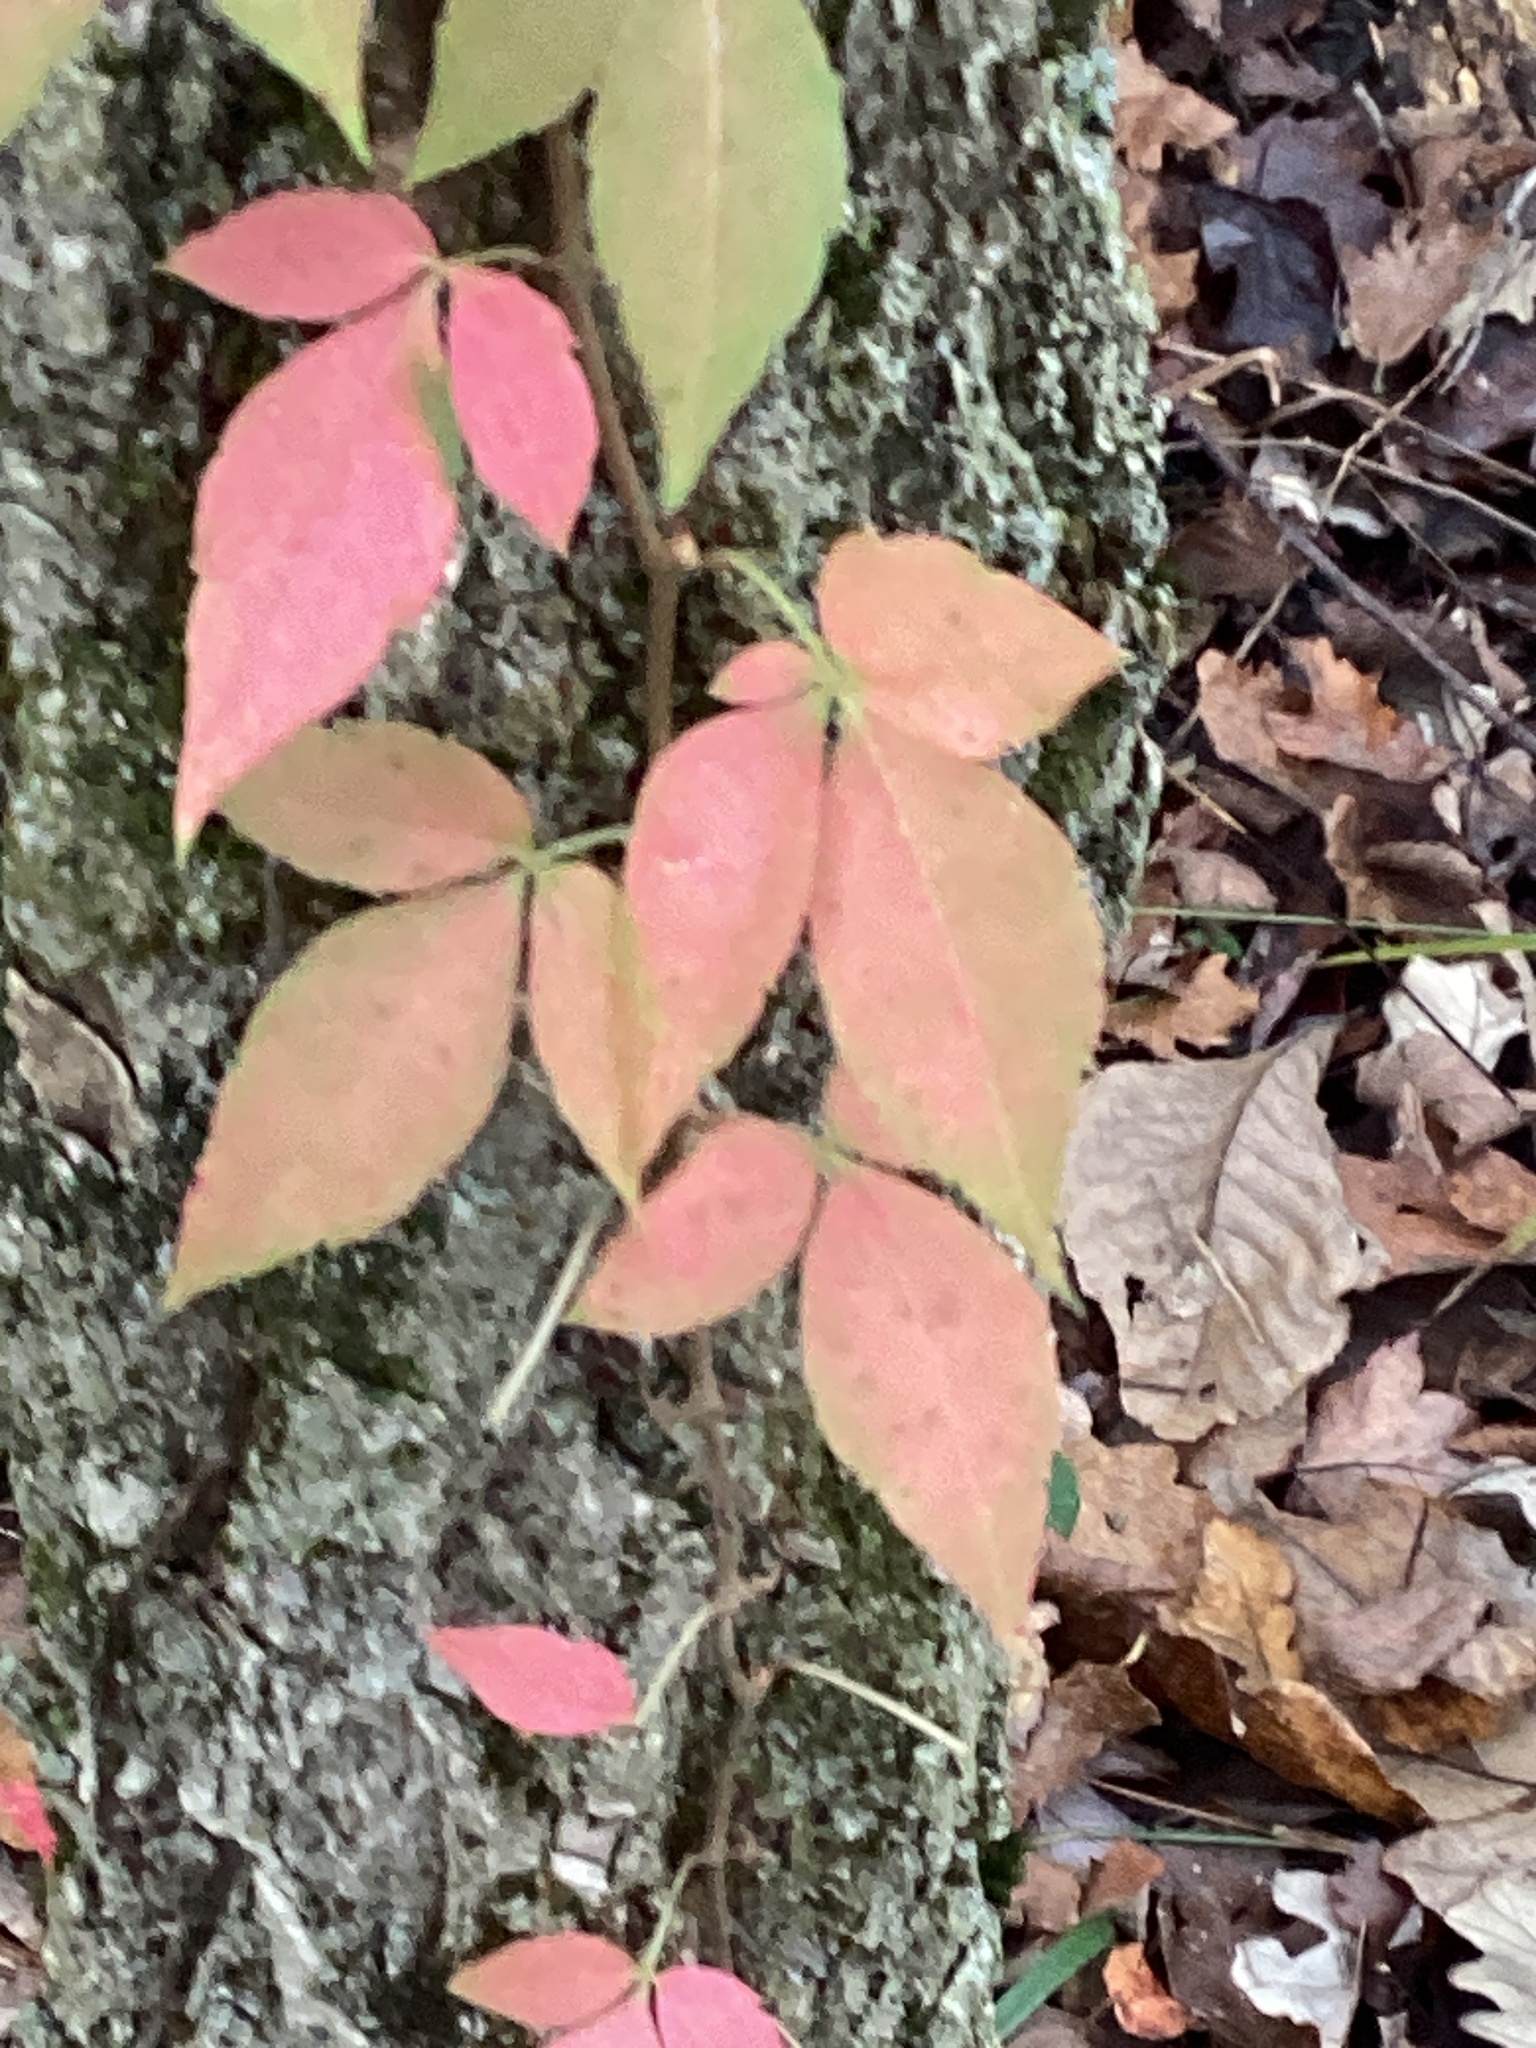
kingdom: Plantae
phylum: Tracheophyta
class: Magnoliopsida
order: Vitales
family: Vitaceae
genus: Parthenocissus
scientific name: Parthenocissus quinquefolia
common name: Virginia-creeper
